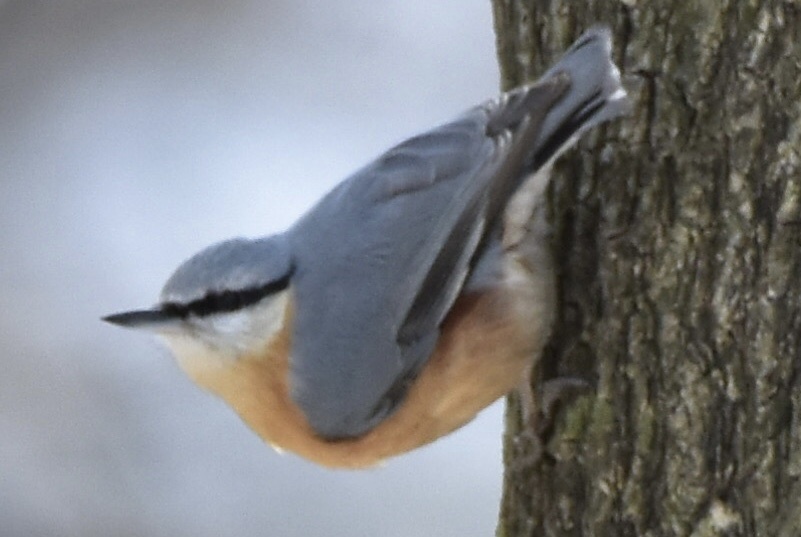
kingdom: Animalia
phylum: Chordata
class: Aves
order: Passeriformes
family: Sittidae
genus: Sitta
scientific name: Sitta europaea
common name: Eurasian nuthatch
